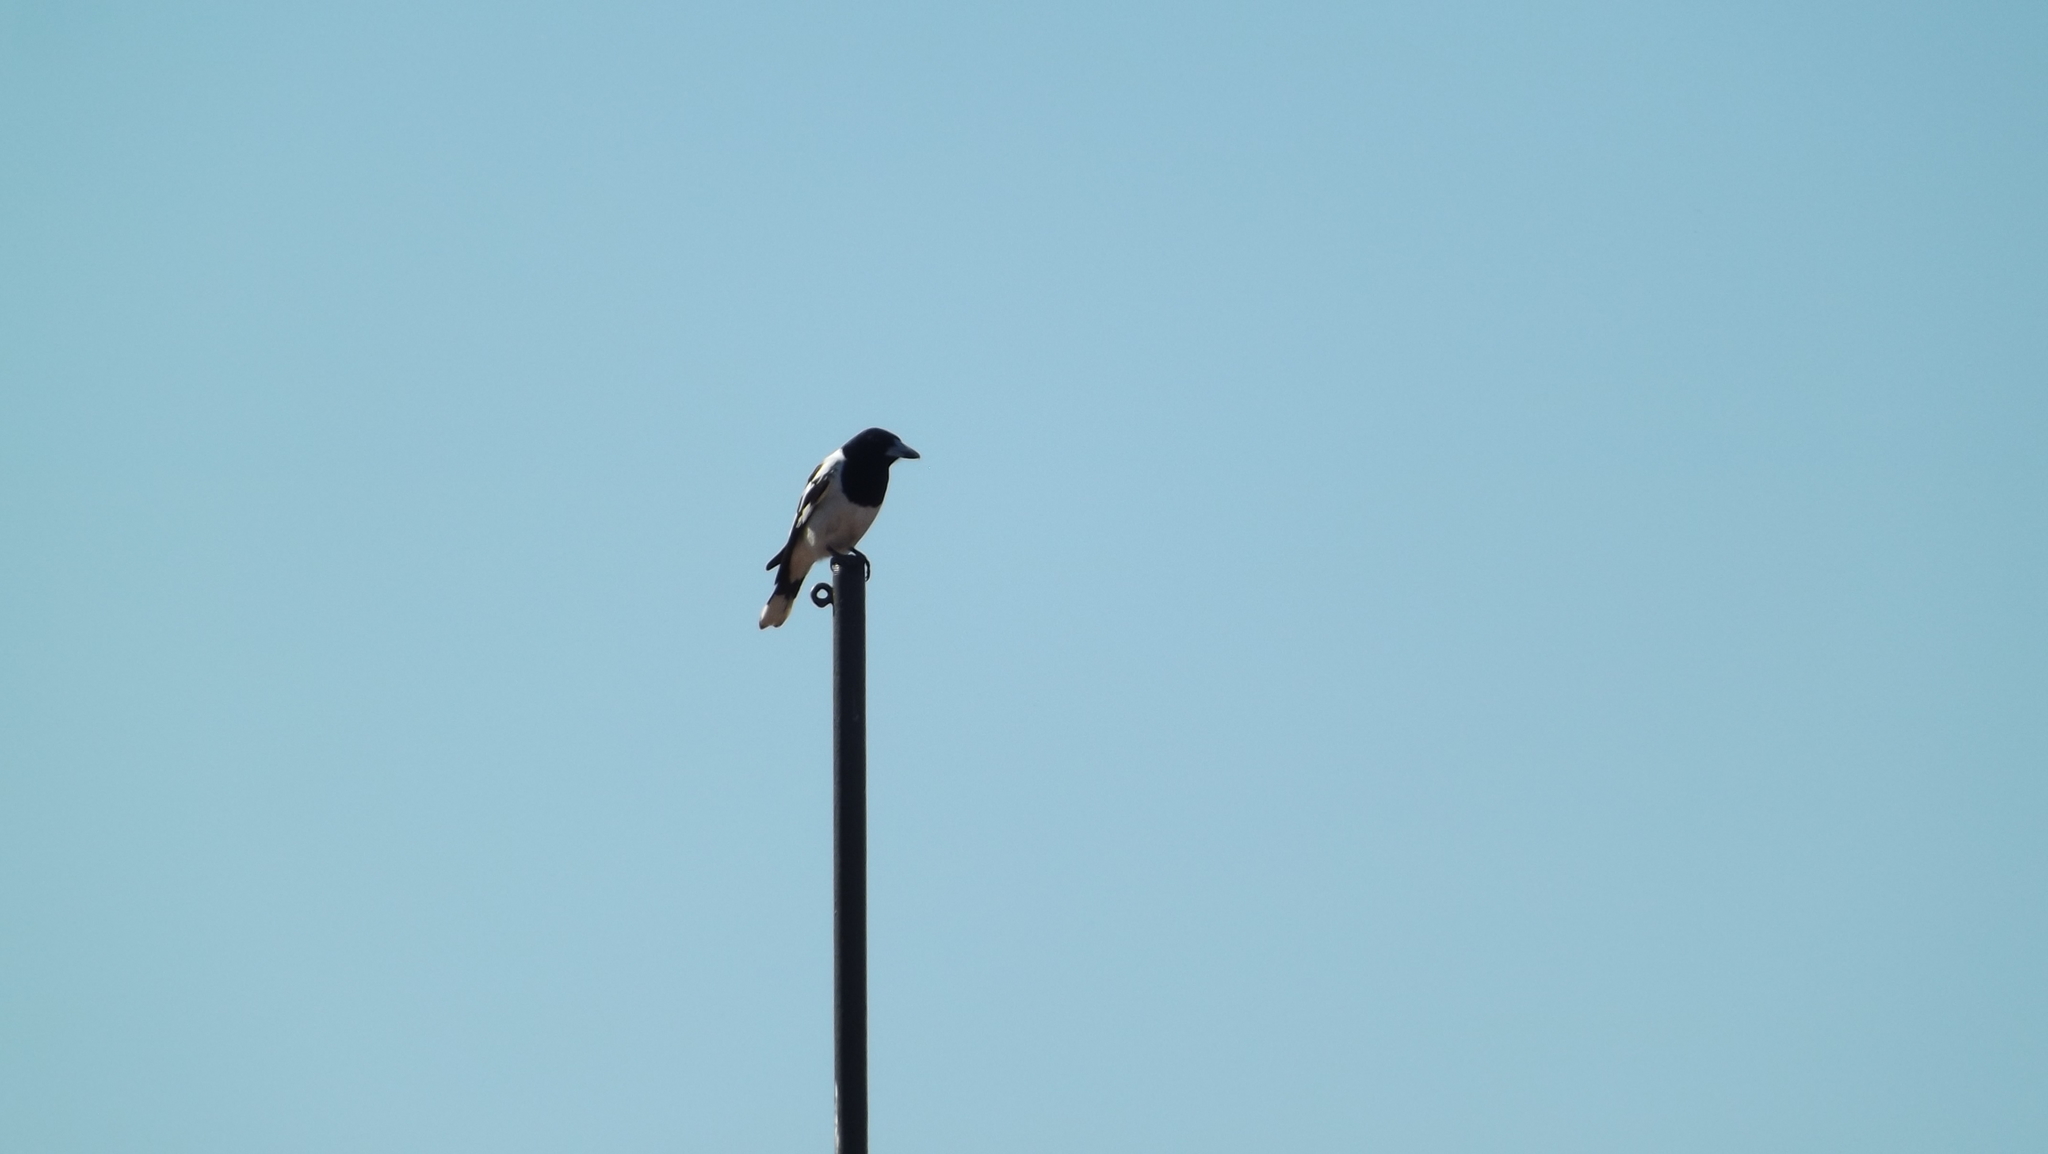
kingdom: Animalia
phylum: Chordata
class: Aves
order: Passeriformes
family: Cracticidae
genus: Cracticus
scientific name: Cracticus nigrogularis
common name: Pied butcherbird
